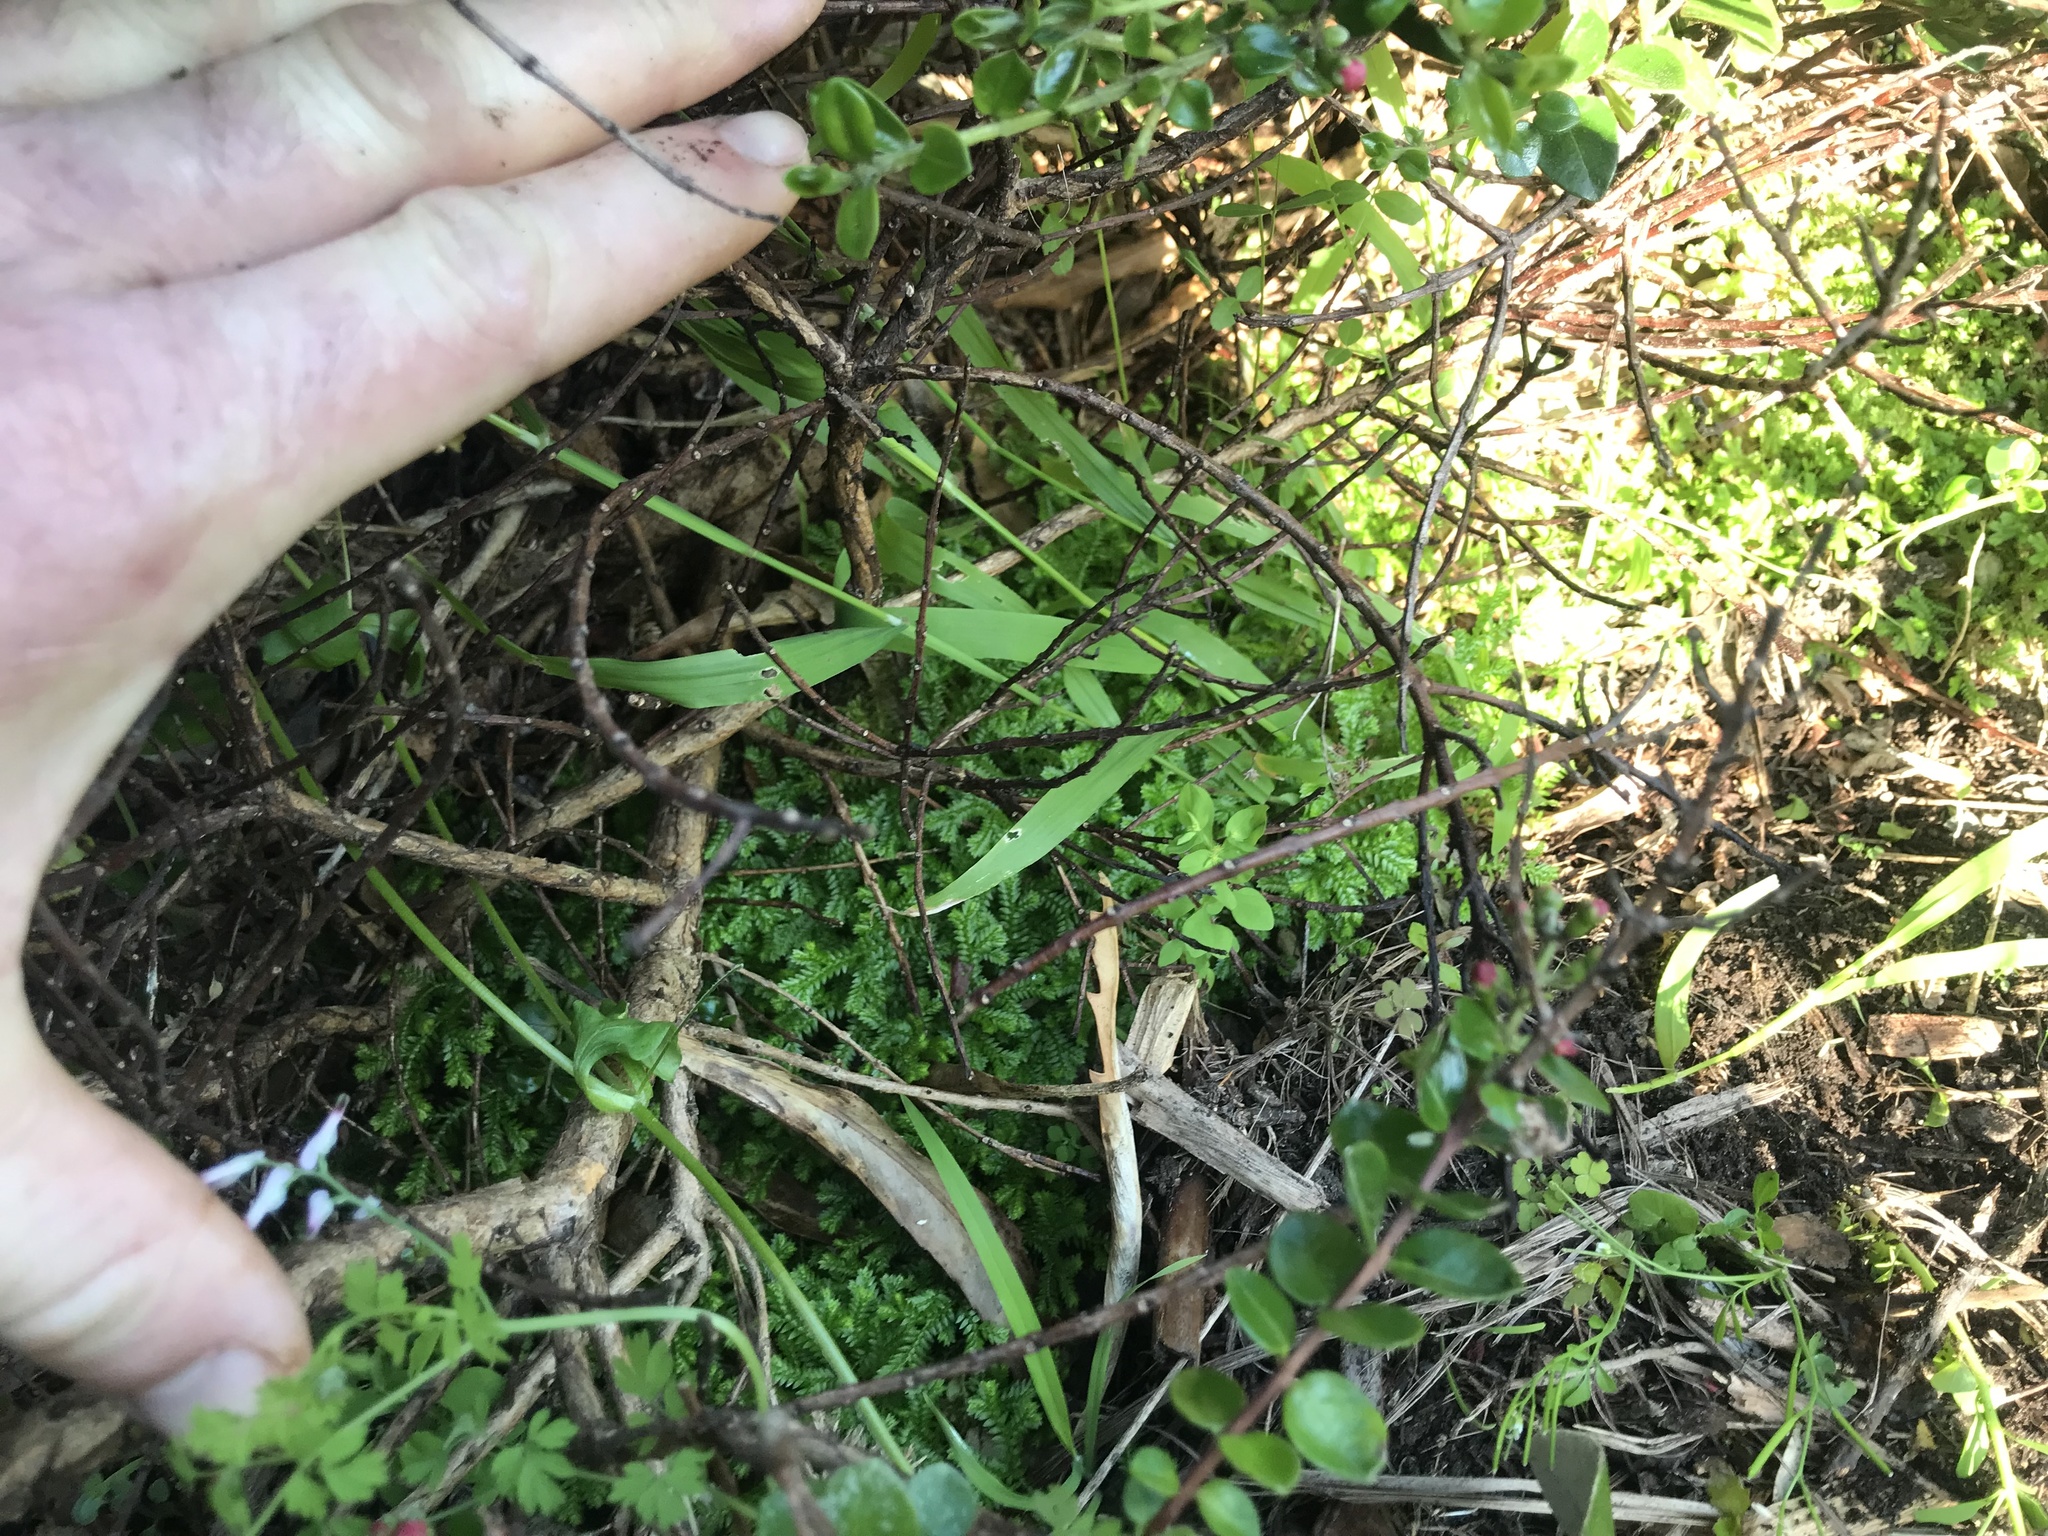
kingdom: Plantae
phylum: Tracheophyta
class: Lycopodiopsida
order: Selaginellales
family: Selaginellaceae
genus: Selaginella
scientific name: Selaginella kraussiana
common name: Krauss' spikemoss
